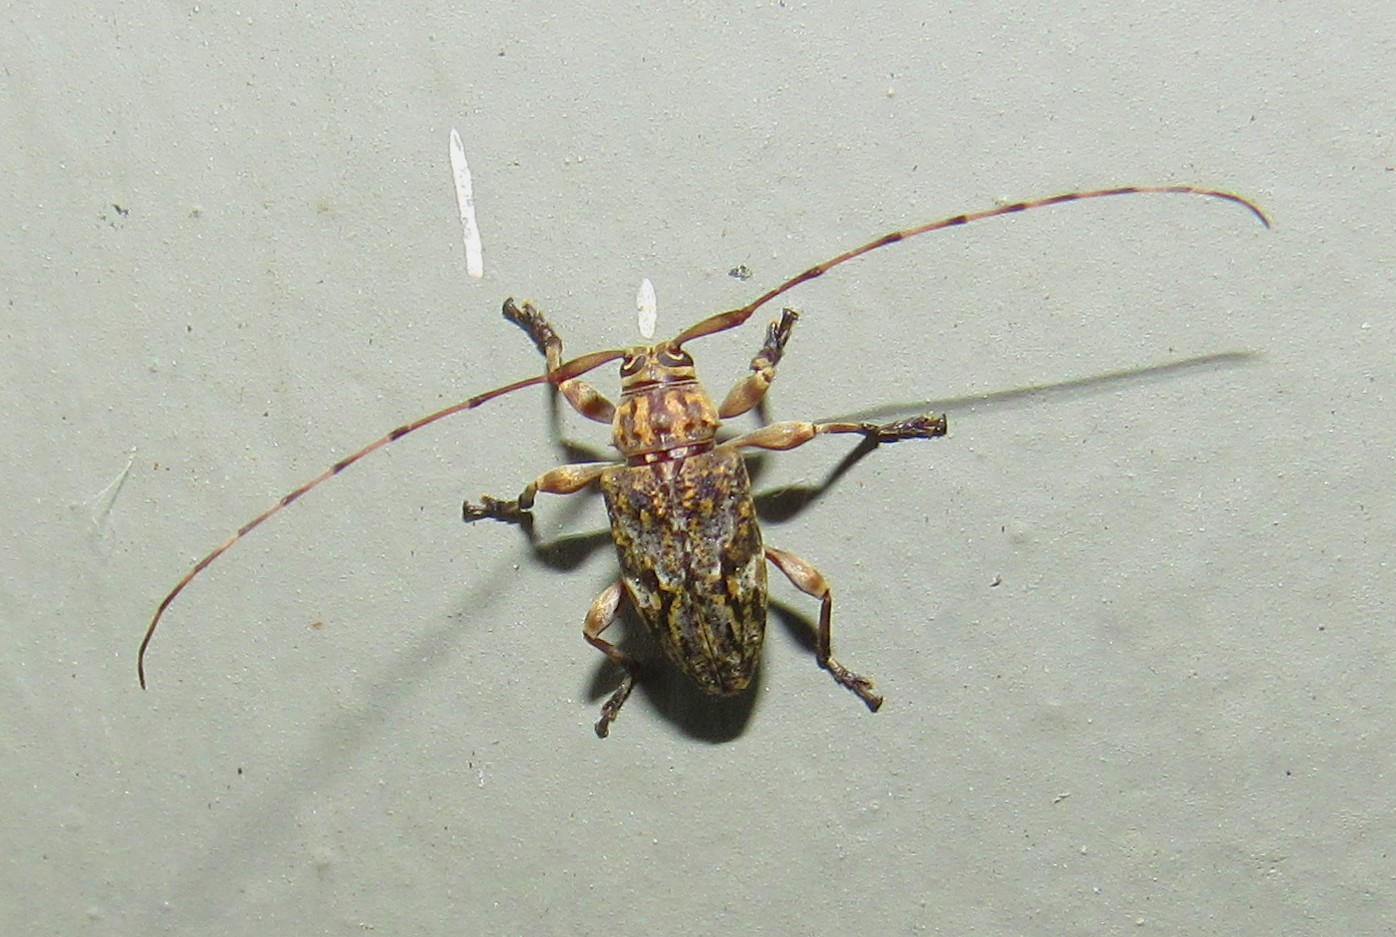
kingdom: Animalia
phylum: Arthropoda
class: Insecta
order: Coleoptera
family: Cerambycidae
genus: Atrypanius
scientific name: Atrypanius haldemani
